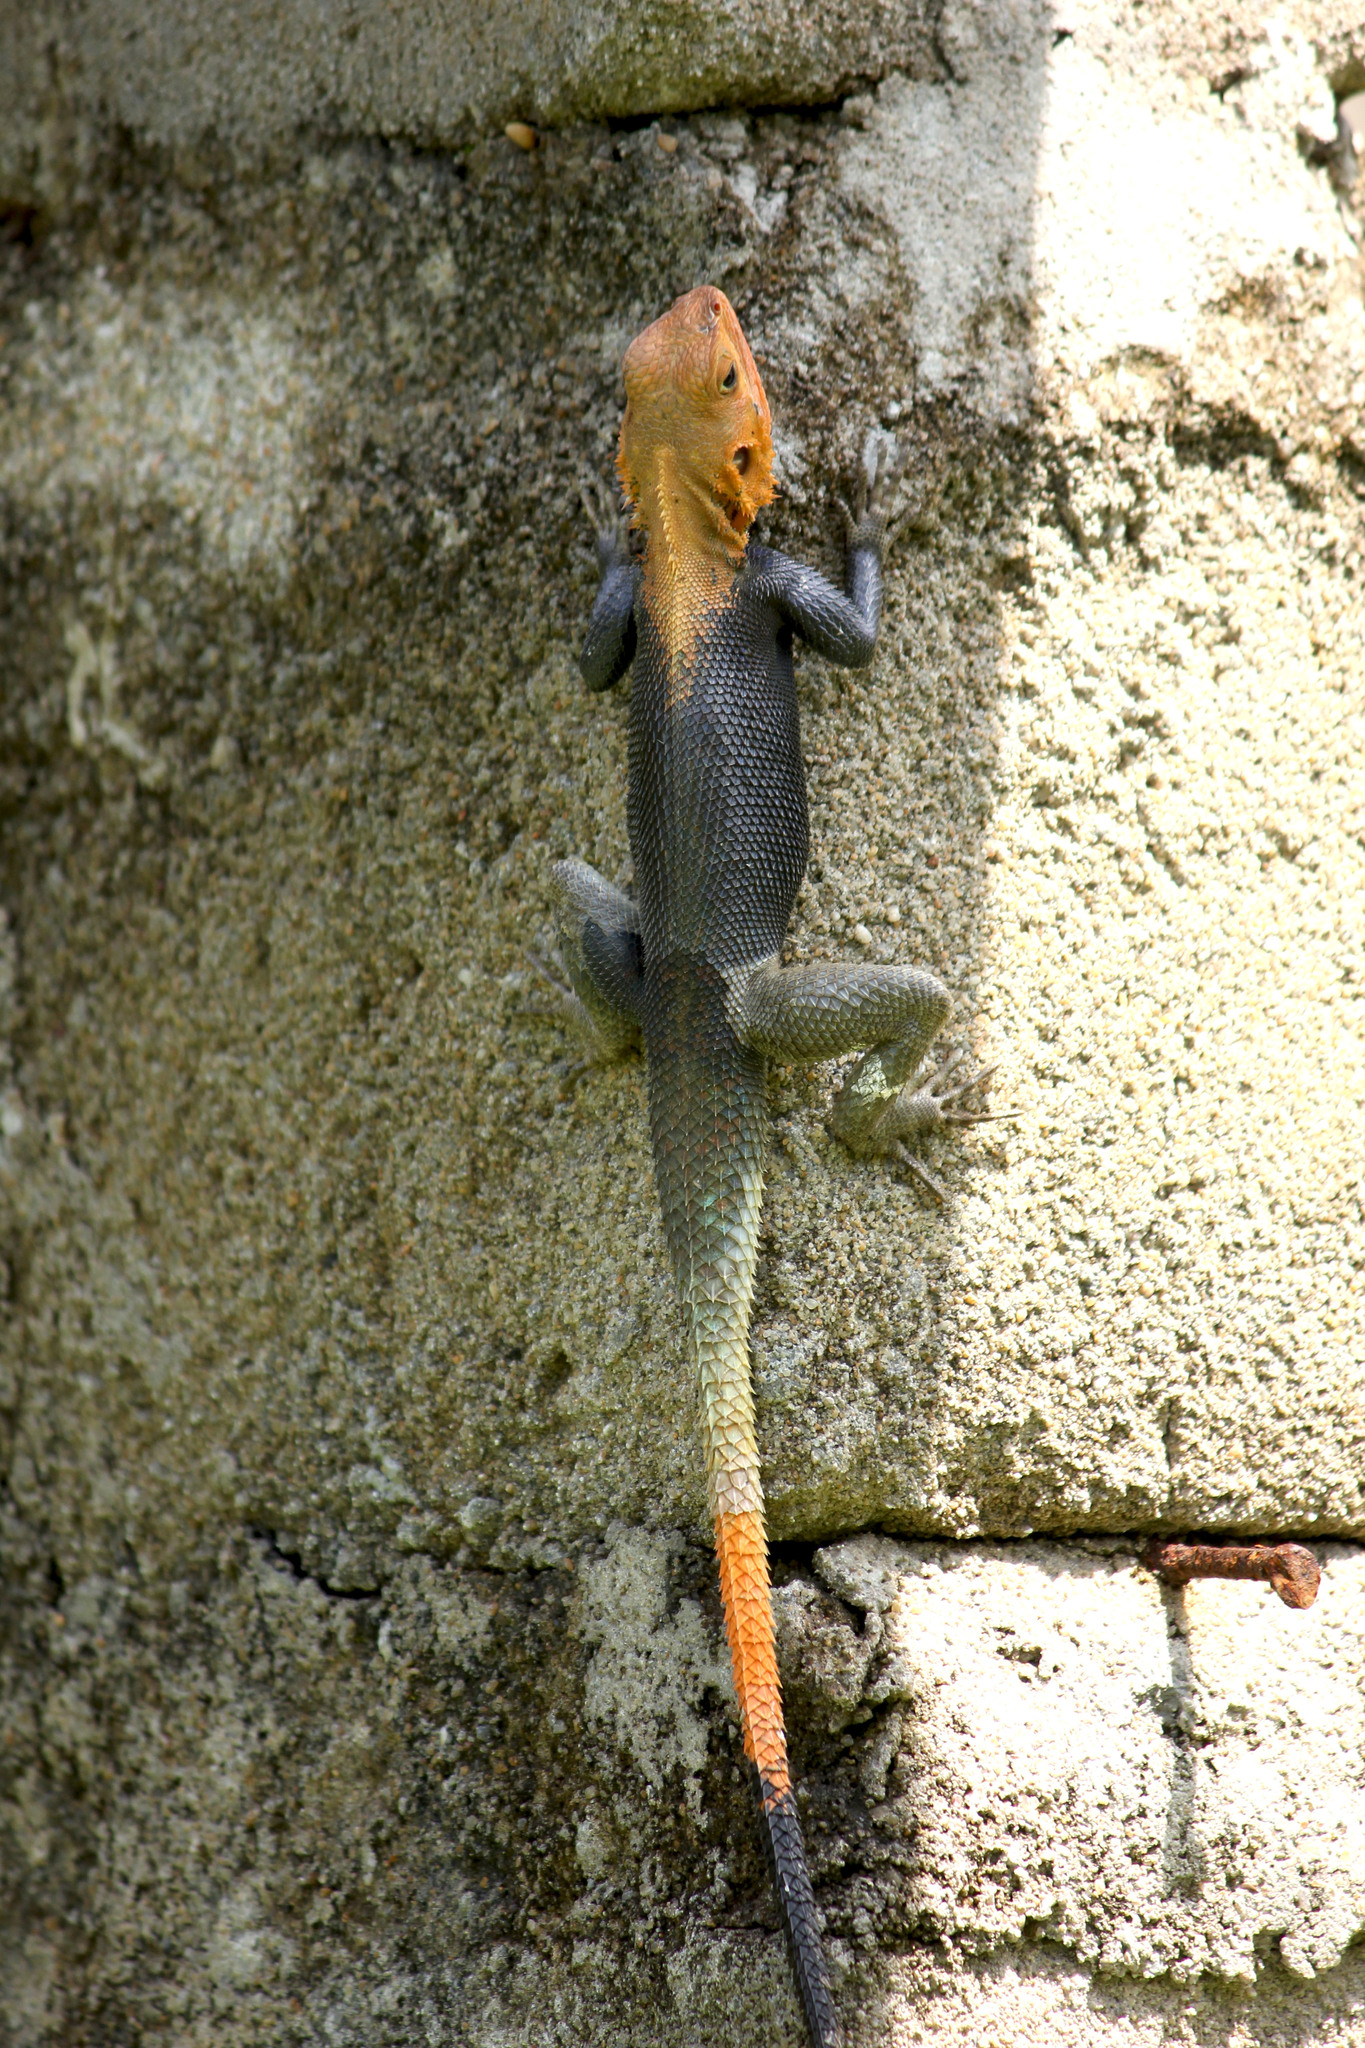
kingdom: Animalia
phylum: Chordata
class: Squamata
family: Agamidae
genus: Agama
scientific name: Agama agama
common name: Common agama
